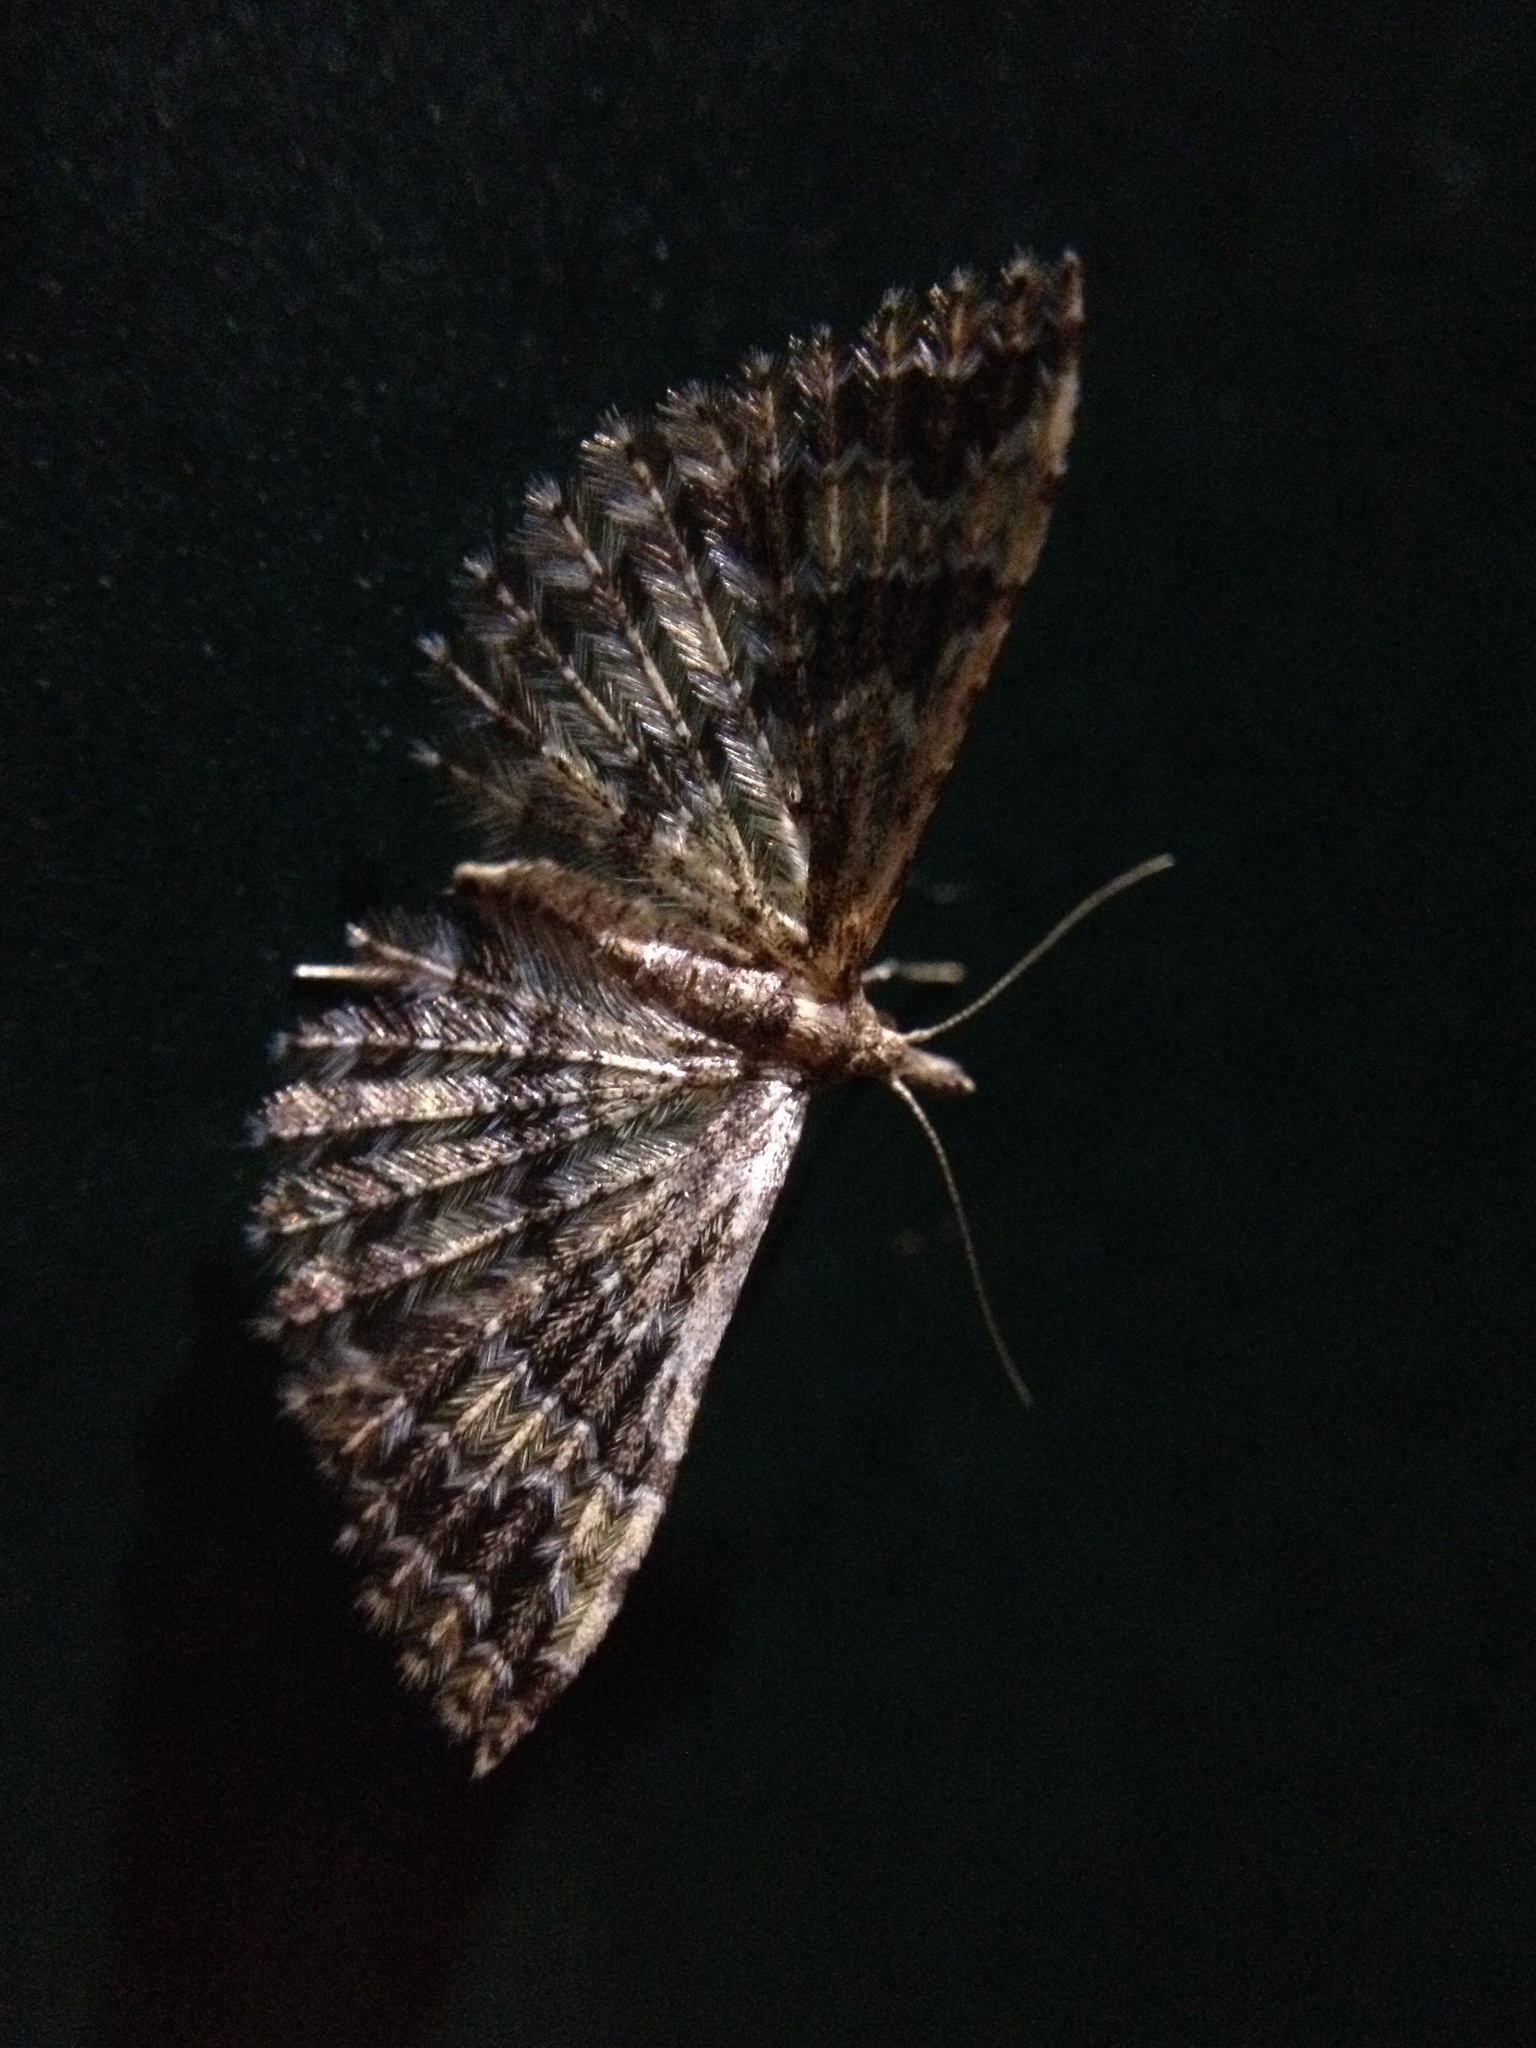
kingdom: Animalia
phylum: Arthropoda
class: Insecta
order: Lepidoptera
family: Alucitidae
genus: Pterotopteryx
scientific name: Pterotopteryx dodecadactyla
